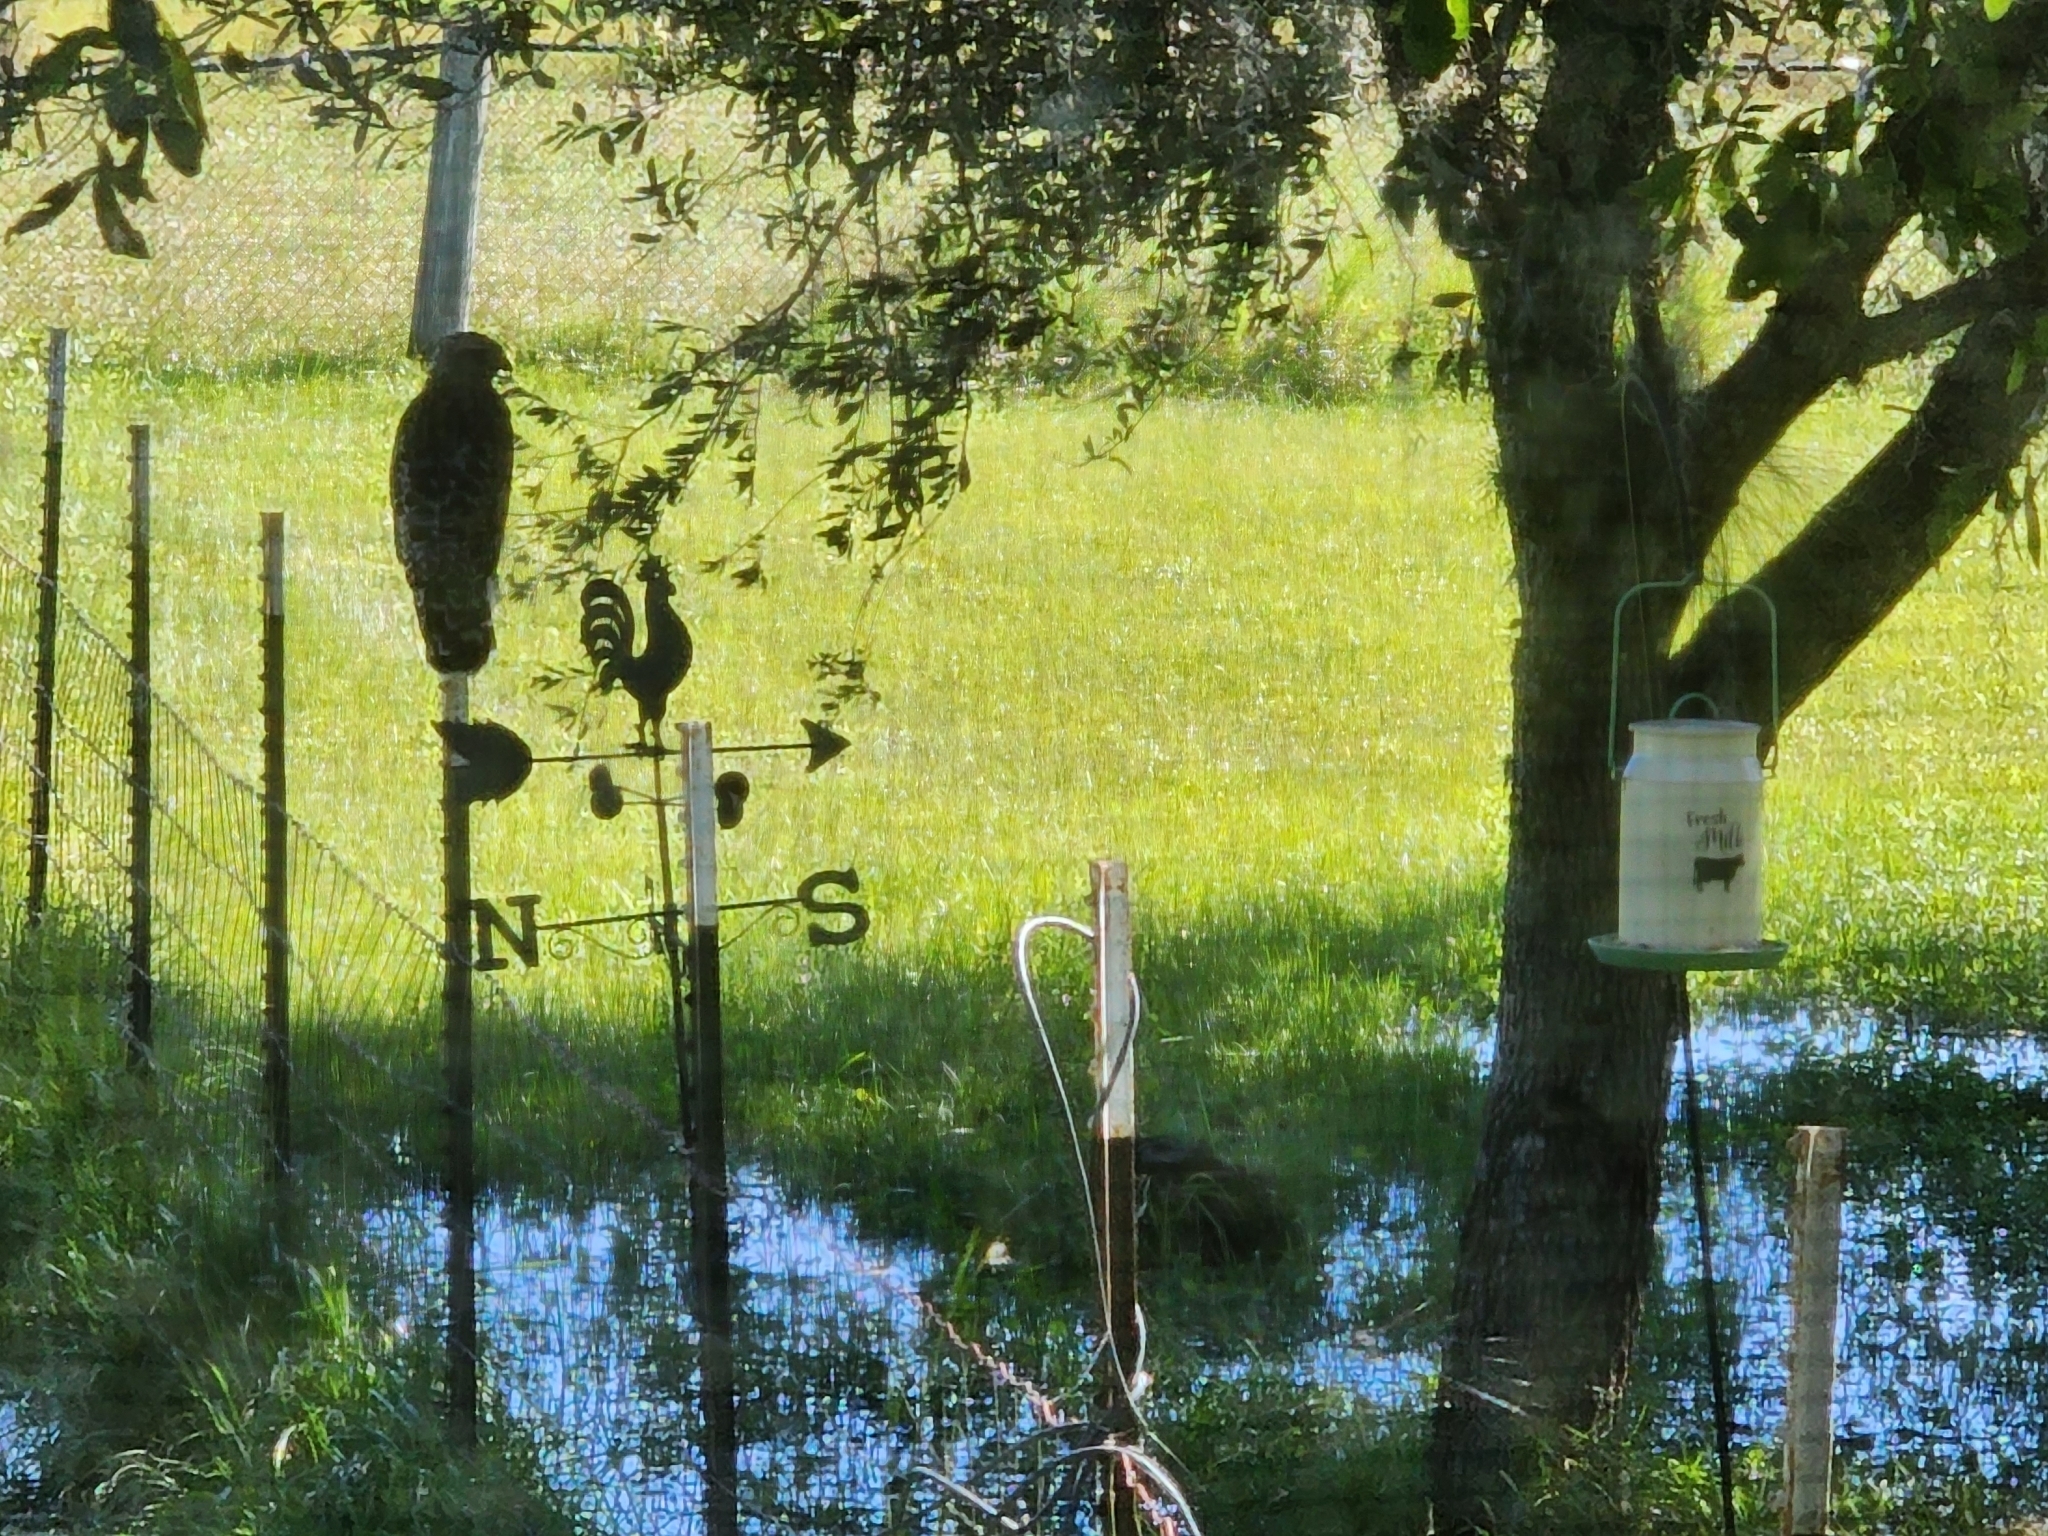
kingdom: Animalia
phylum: Chordata
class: Aves
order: Accipitriformes
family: Accipitridae
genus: Buteo
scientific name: Buteo lineatus
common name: Red-shouldered hawk
